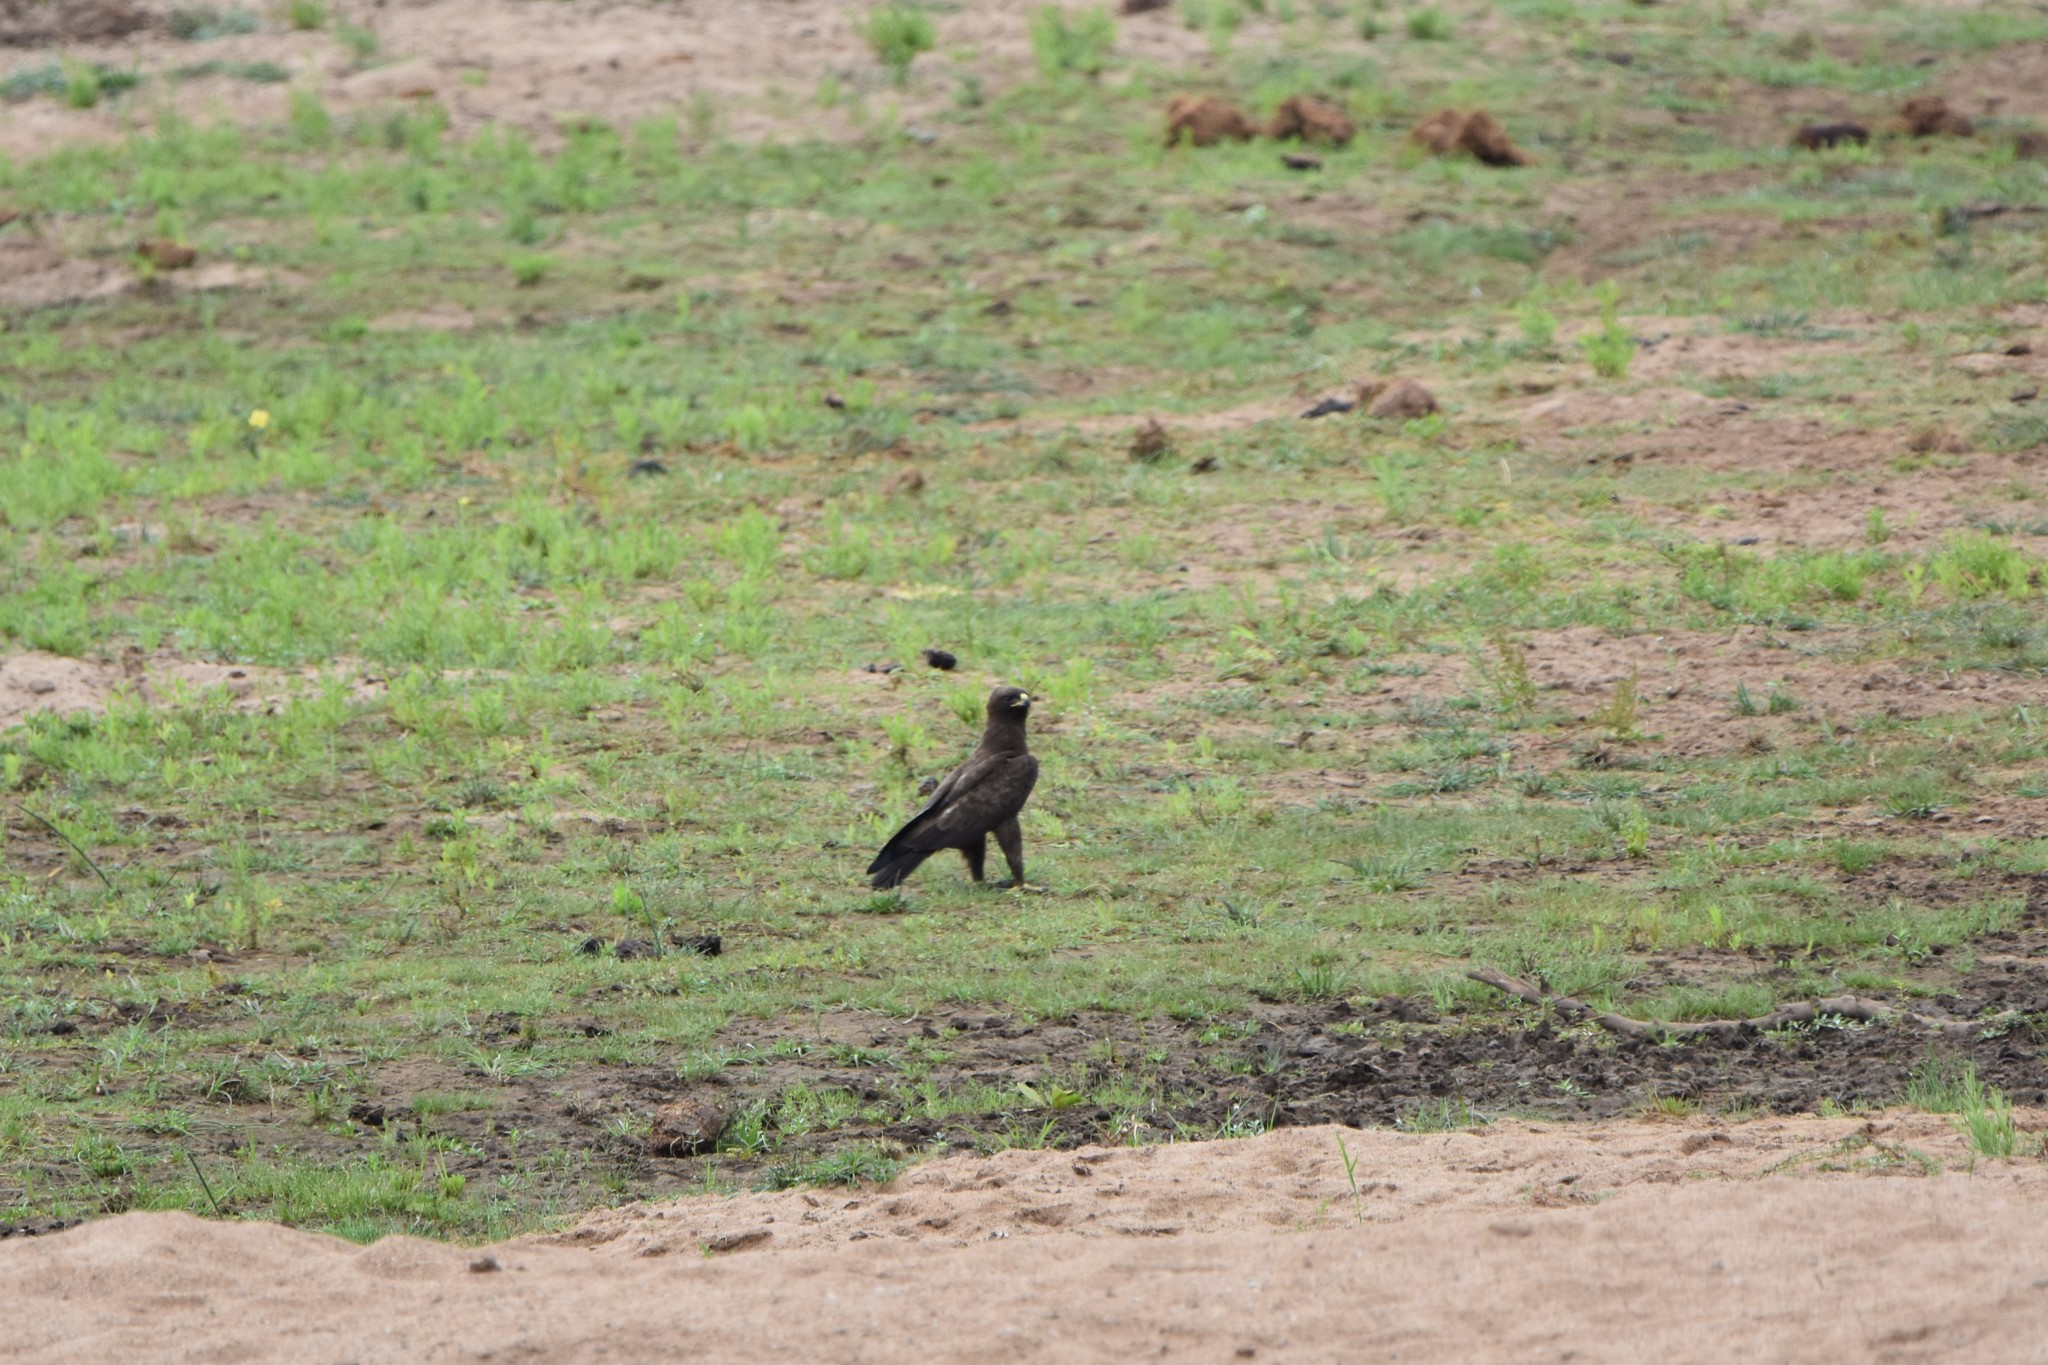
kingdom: Animalia
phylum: Chordata
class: Aves
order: Accipitriformes
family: Accipitridae
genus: Hieraaetus
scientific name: Hieraaetus wahlbergi
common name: Wahlberg's eagle
